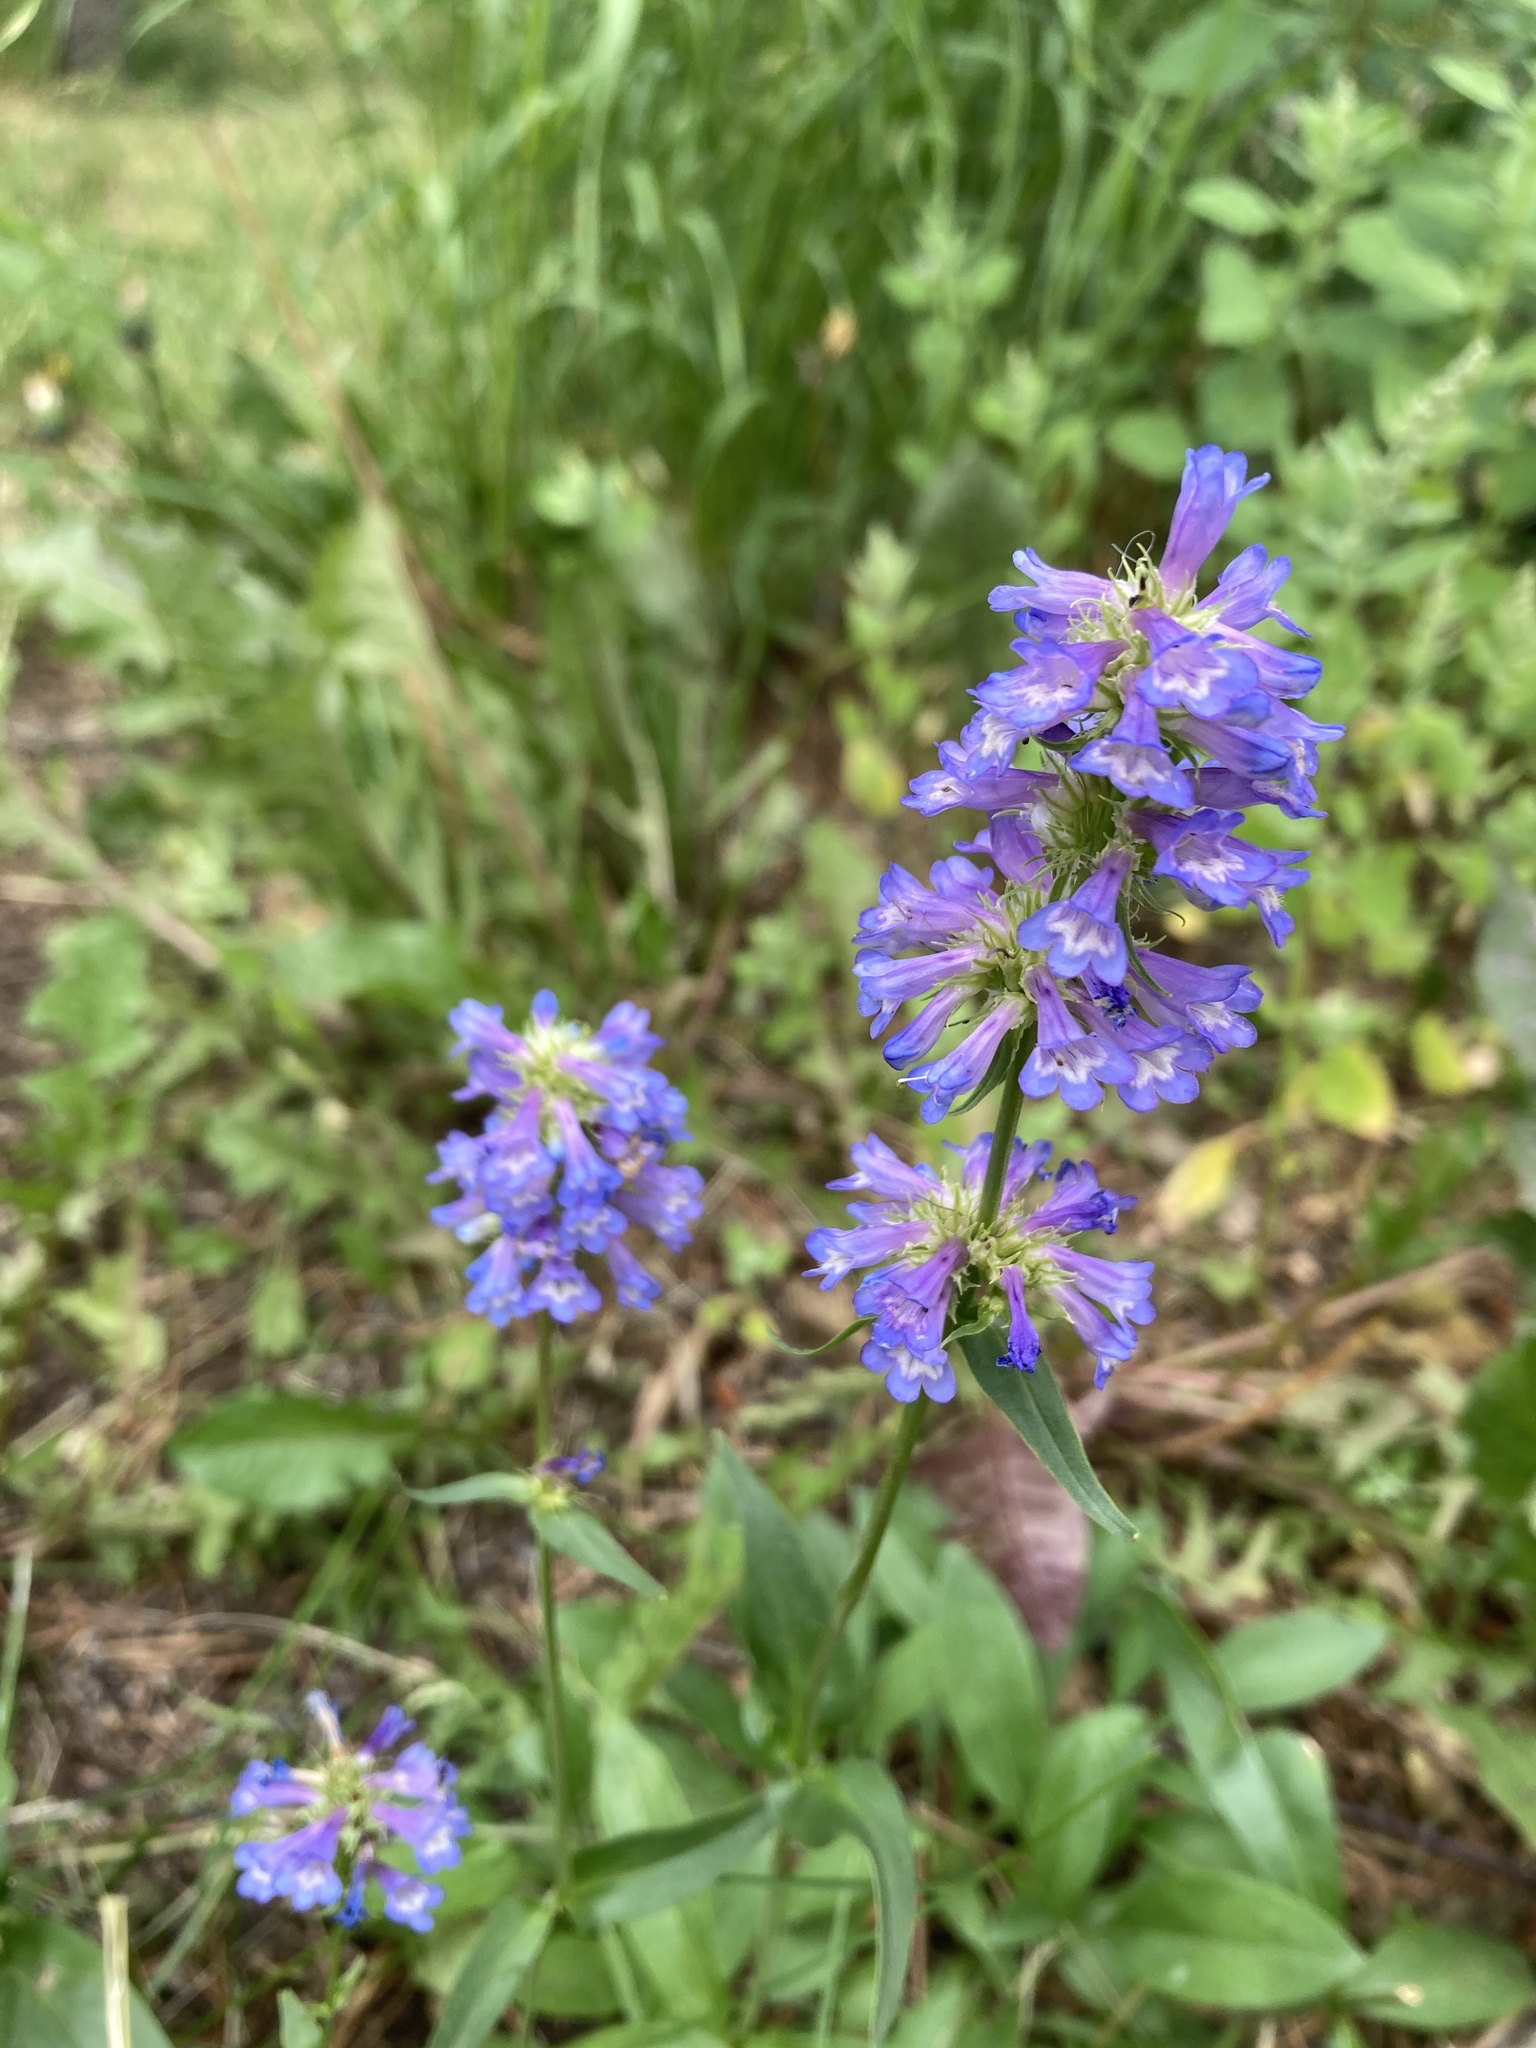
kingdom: Plantae
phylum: Tracheophyta
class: Magnoliopsida
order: Lamiales
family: Plantaginaceae
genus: Penstemon
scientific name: Penstemon procerus
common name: Small-flower penstemon
